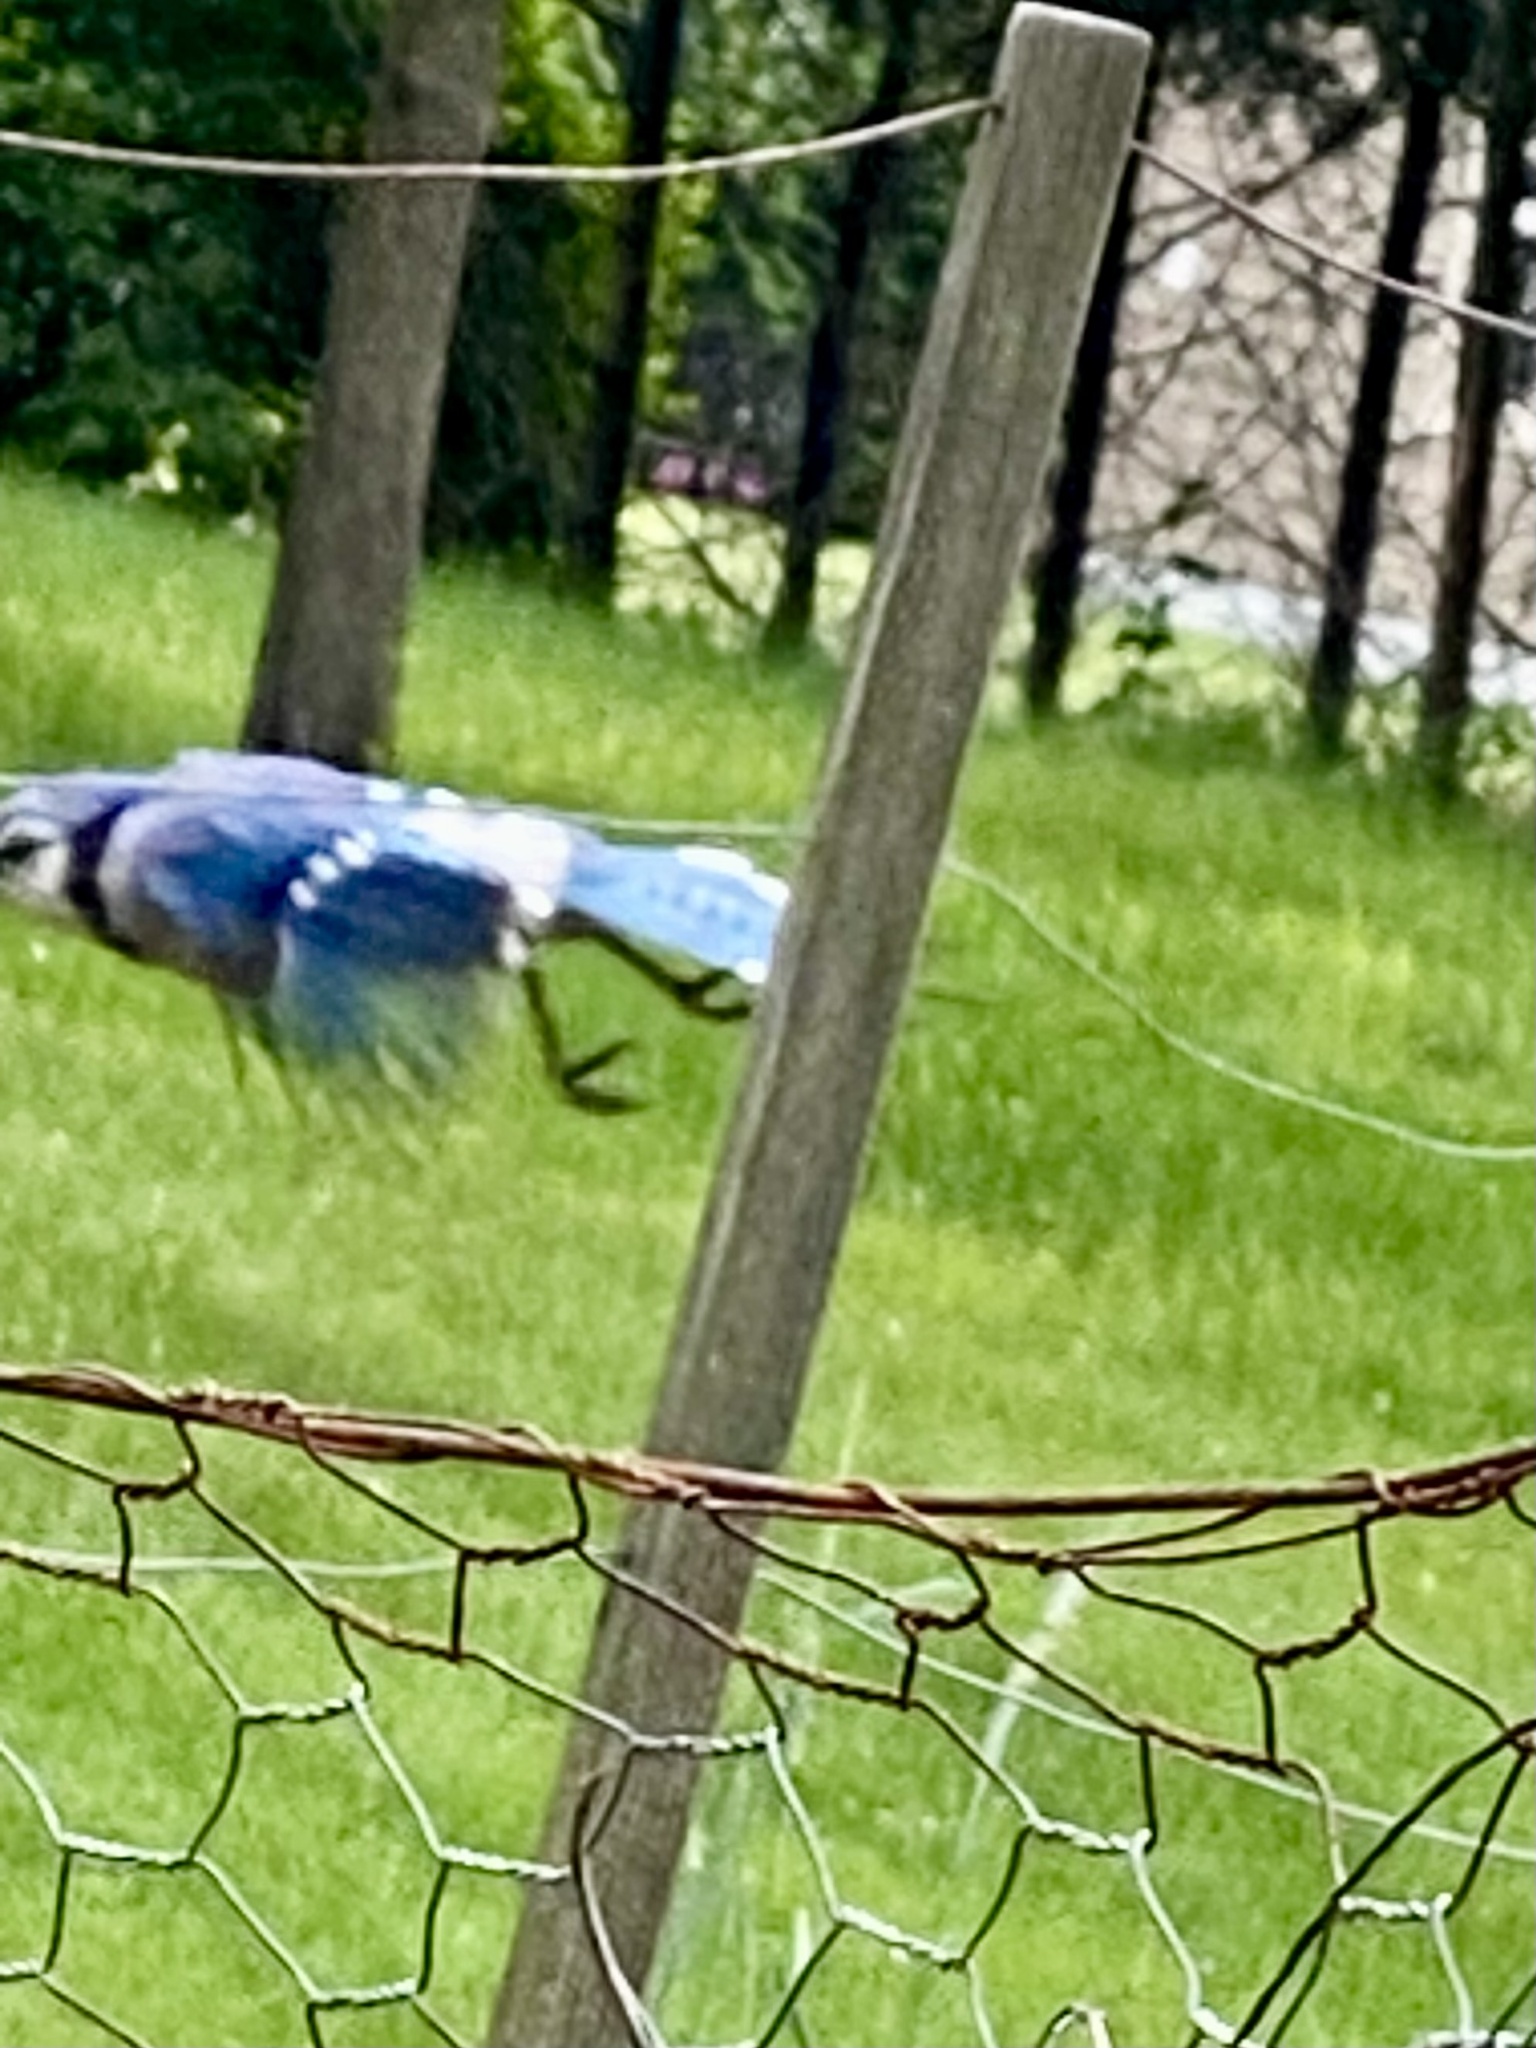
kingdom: Animalia
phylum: Chordata
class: Aves
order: Passeriformes
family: Corvidae
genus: Cyanocitta
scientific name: Cyanocitta cristata
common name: Blue jay
